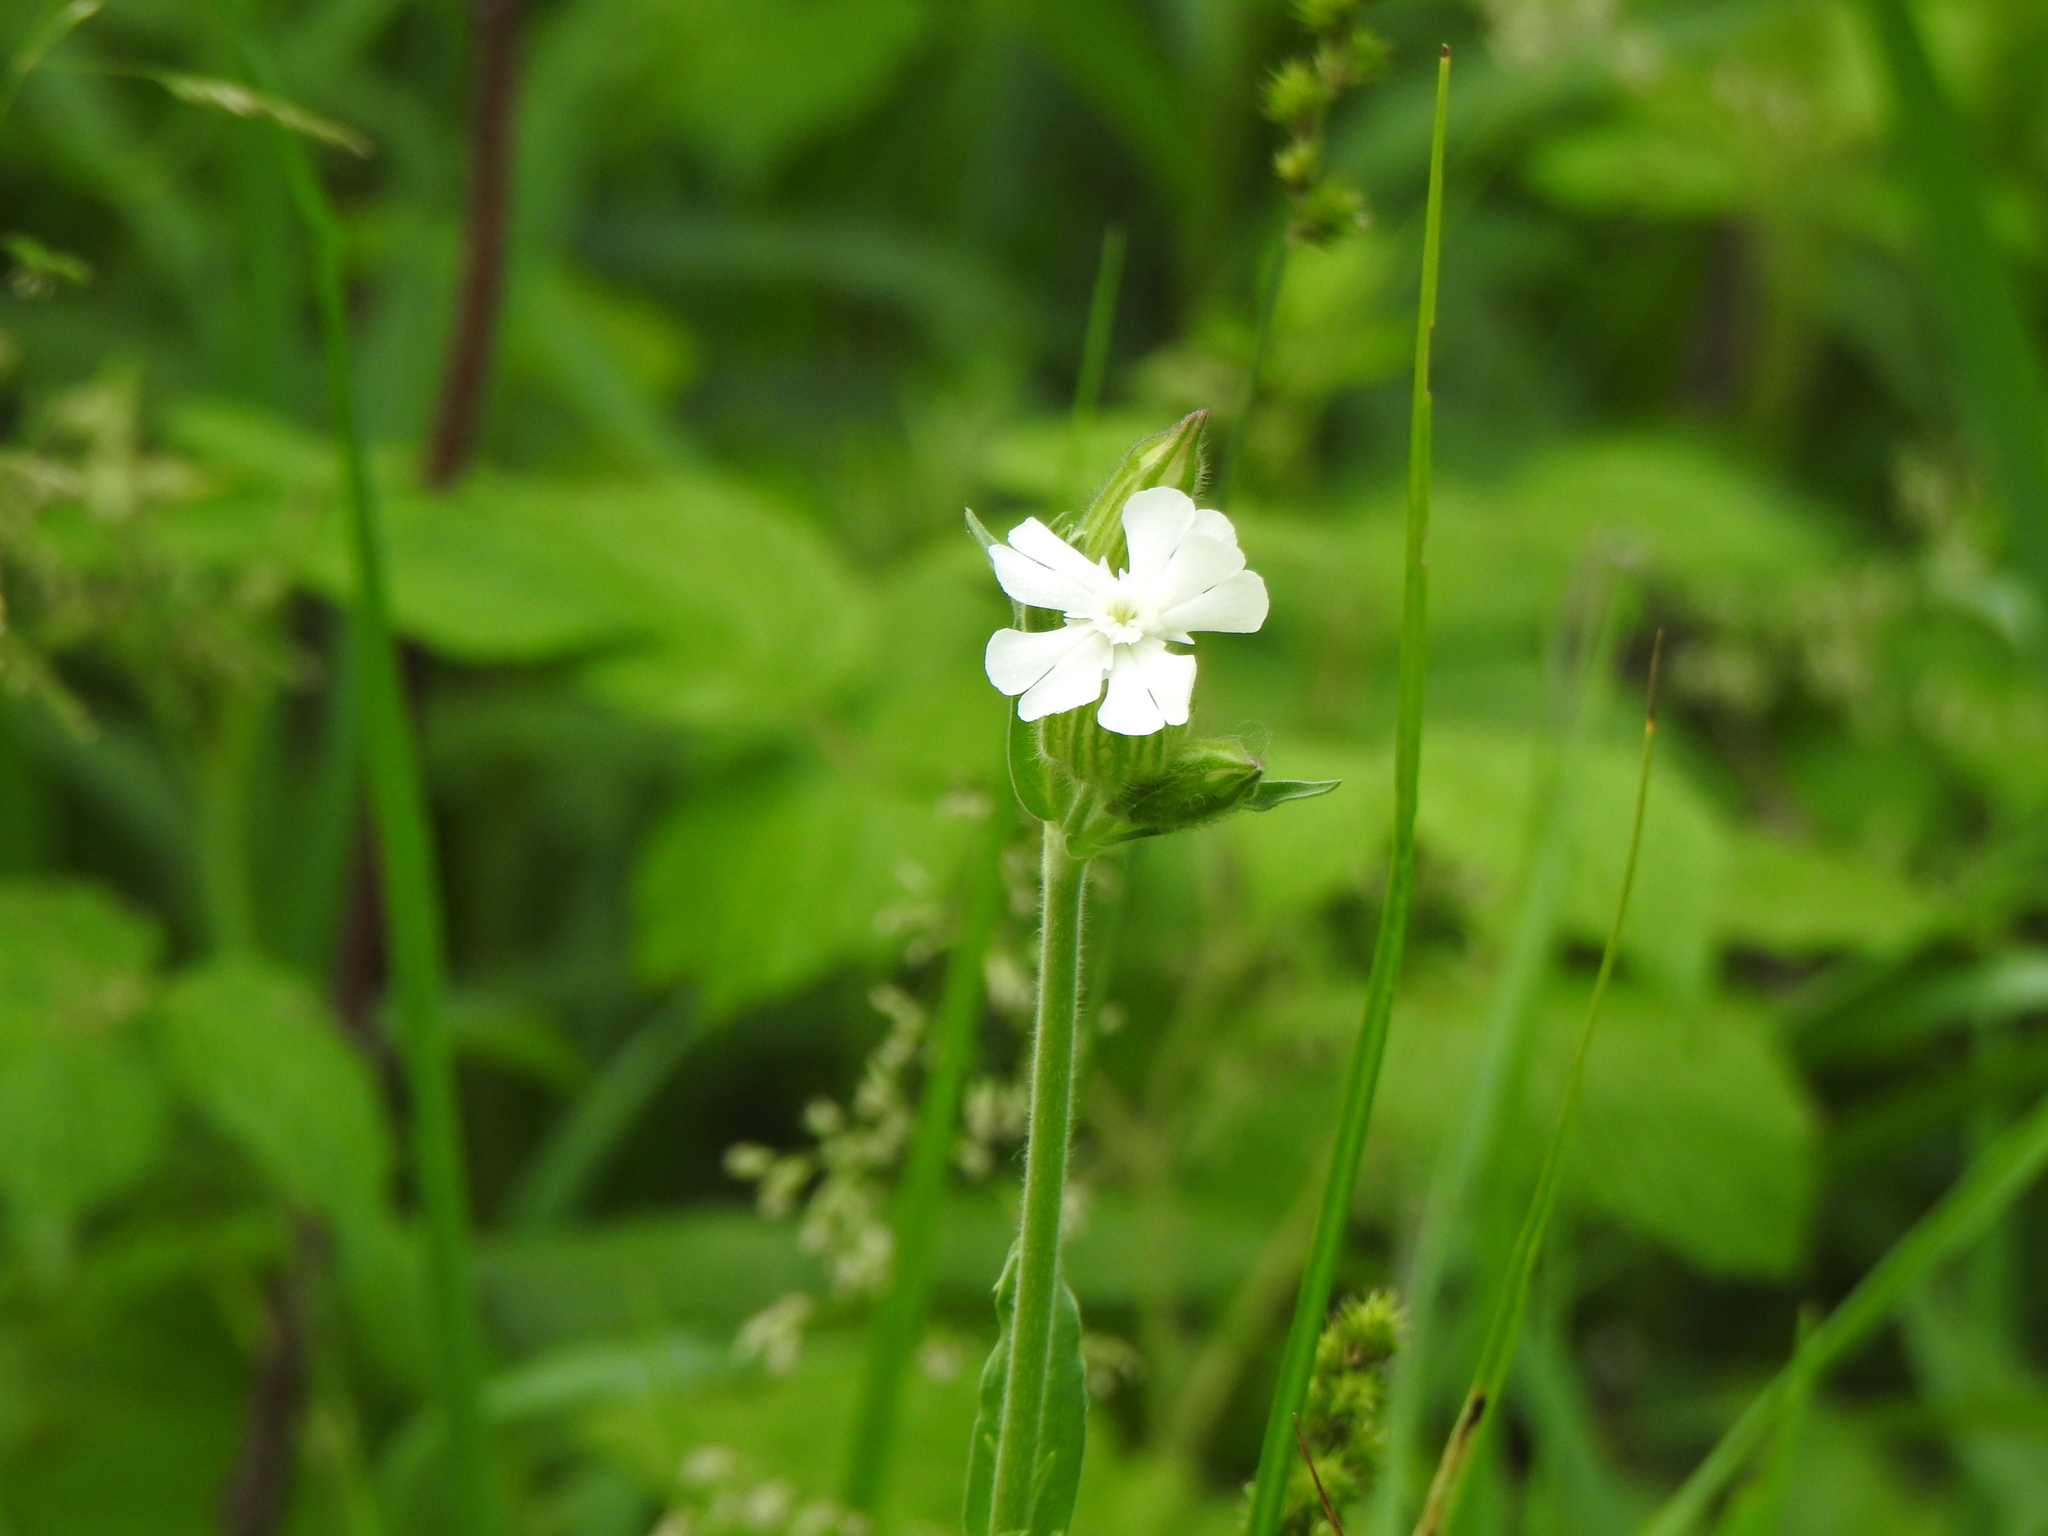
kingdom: Plantae
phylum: Tracheophyta
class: Magnoliopsida
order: Caryophyllales
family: Caryophyllaceae
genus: Silene
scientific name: Silene latifolia
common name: White campion
